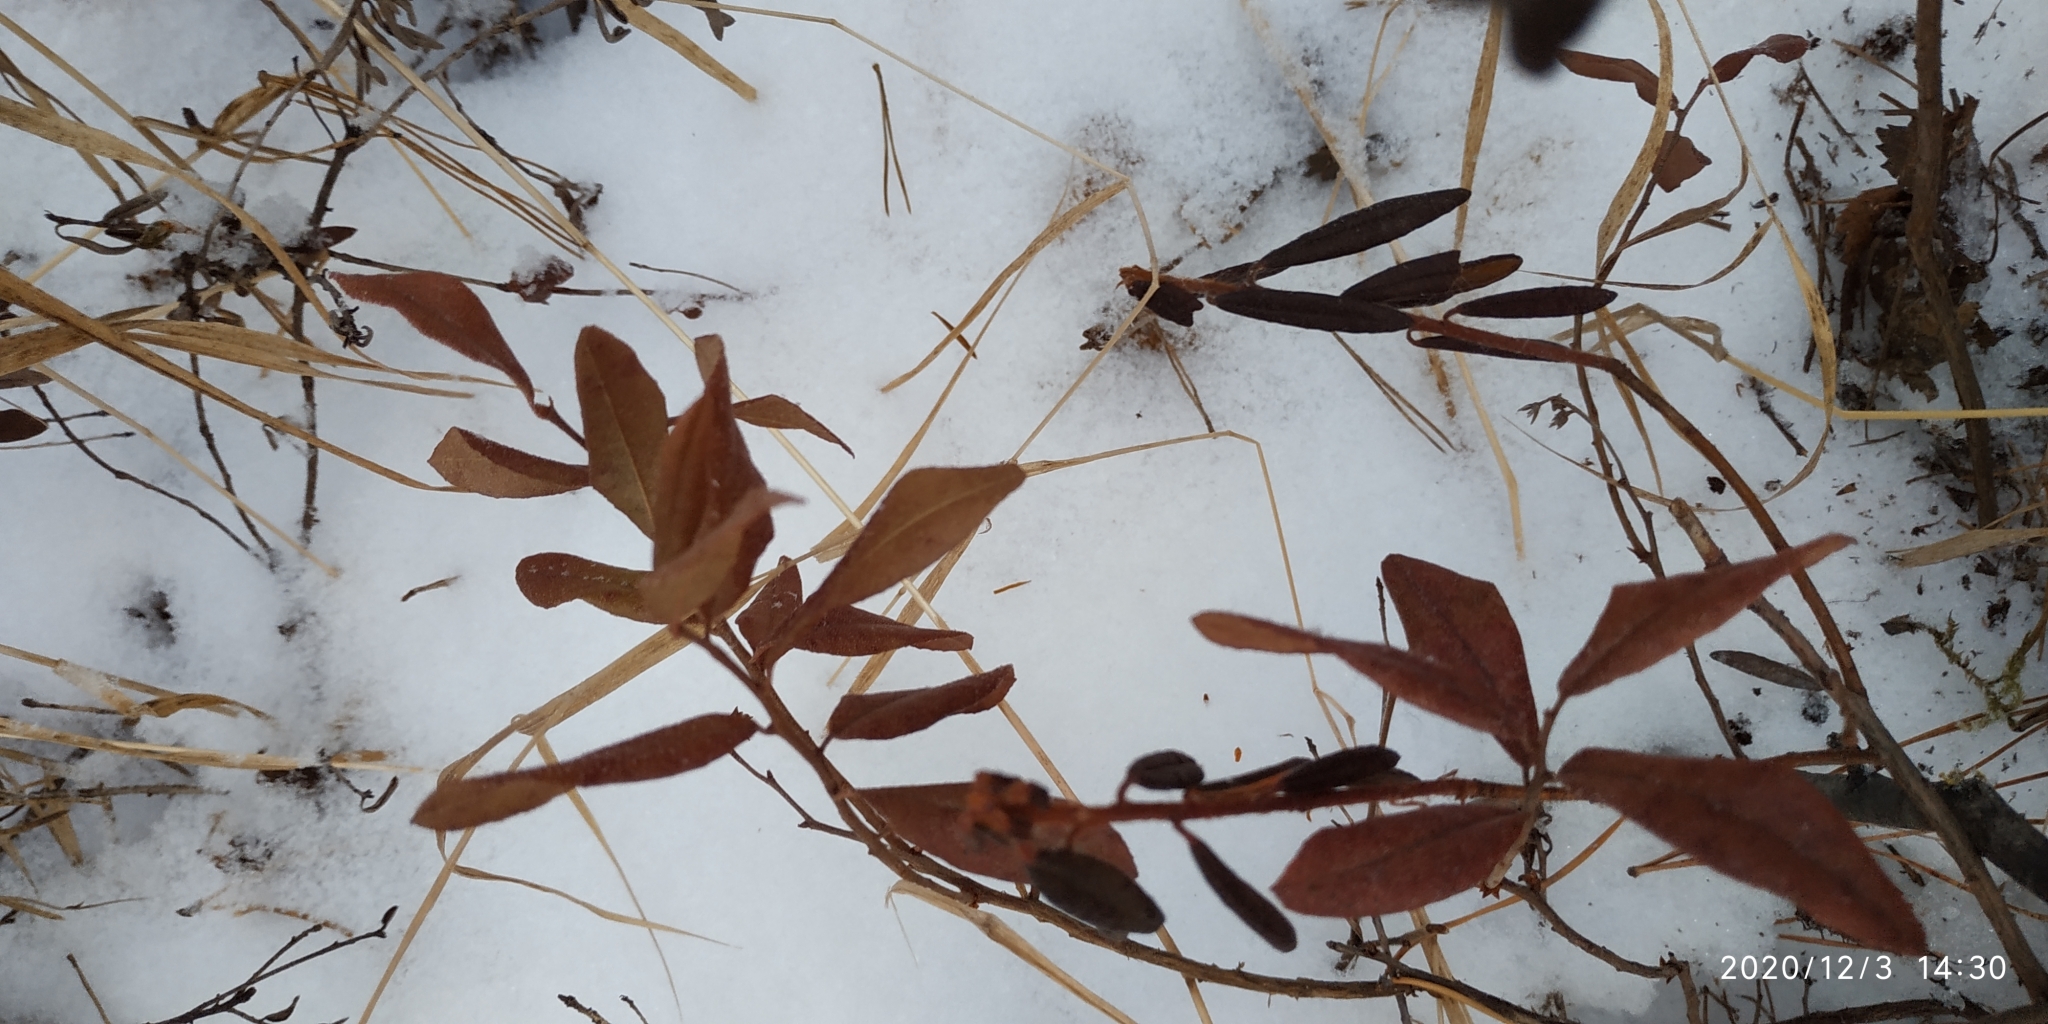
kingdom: Plantae
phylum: Tracheophyta
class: Magnoliopsida
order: Ericales
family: Ericaceae
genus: Chamaedaphne
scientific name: Chamaedaphne calyculata
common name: Leatherleaf
